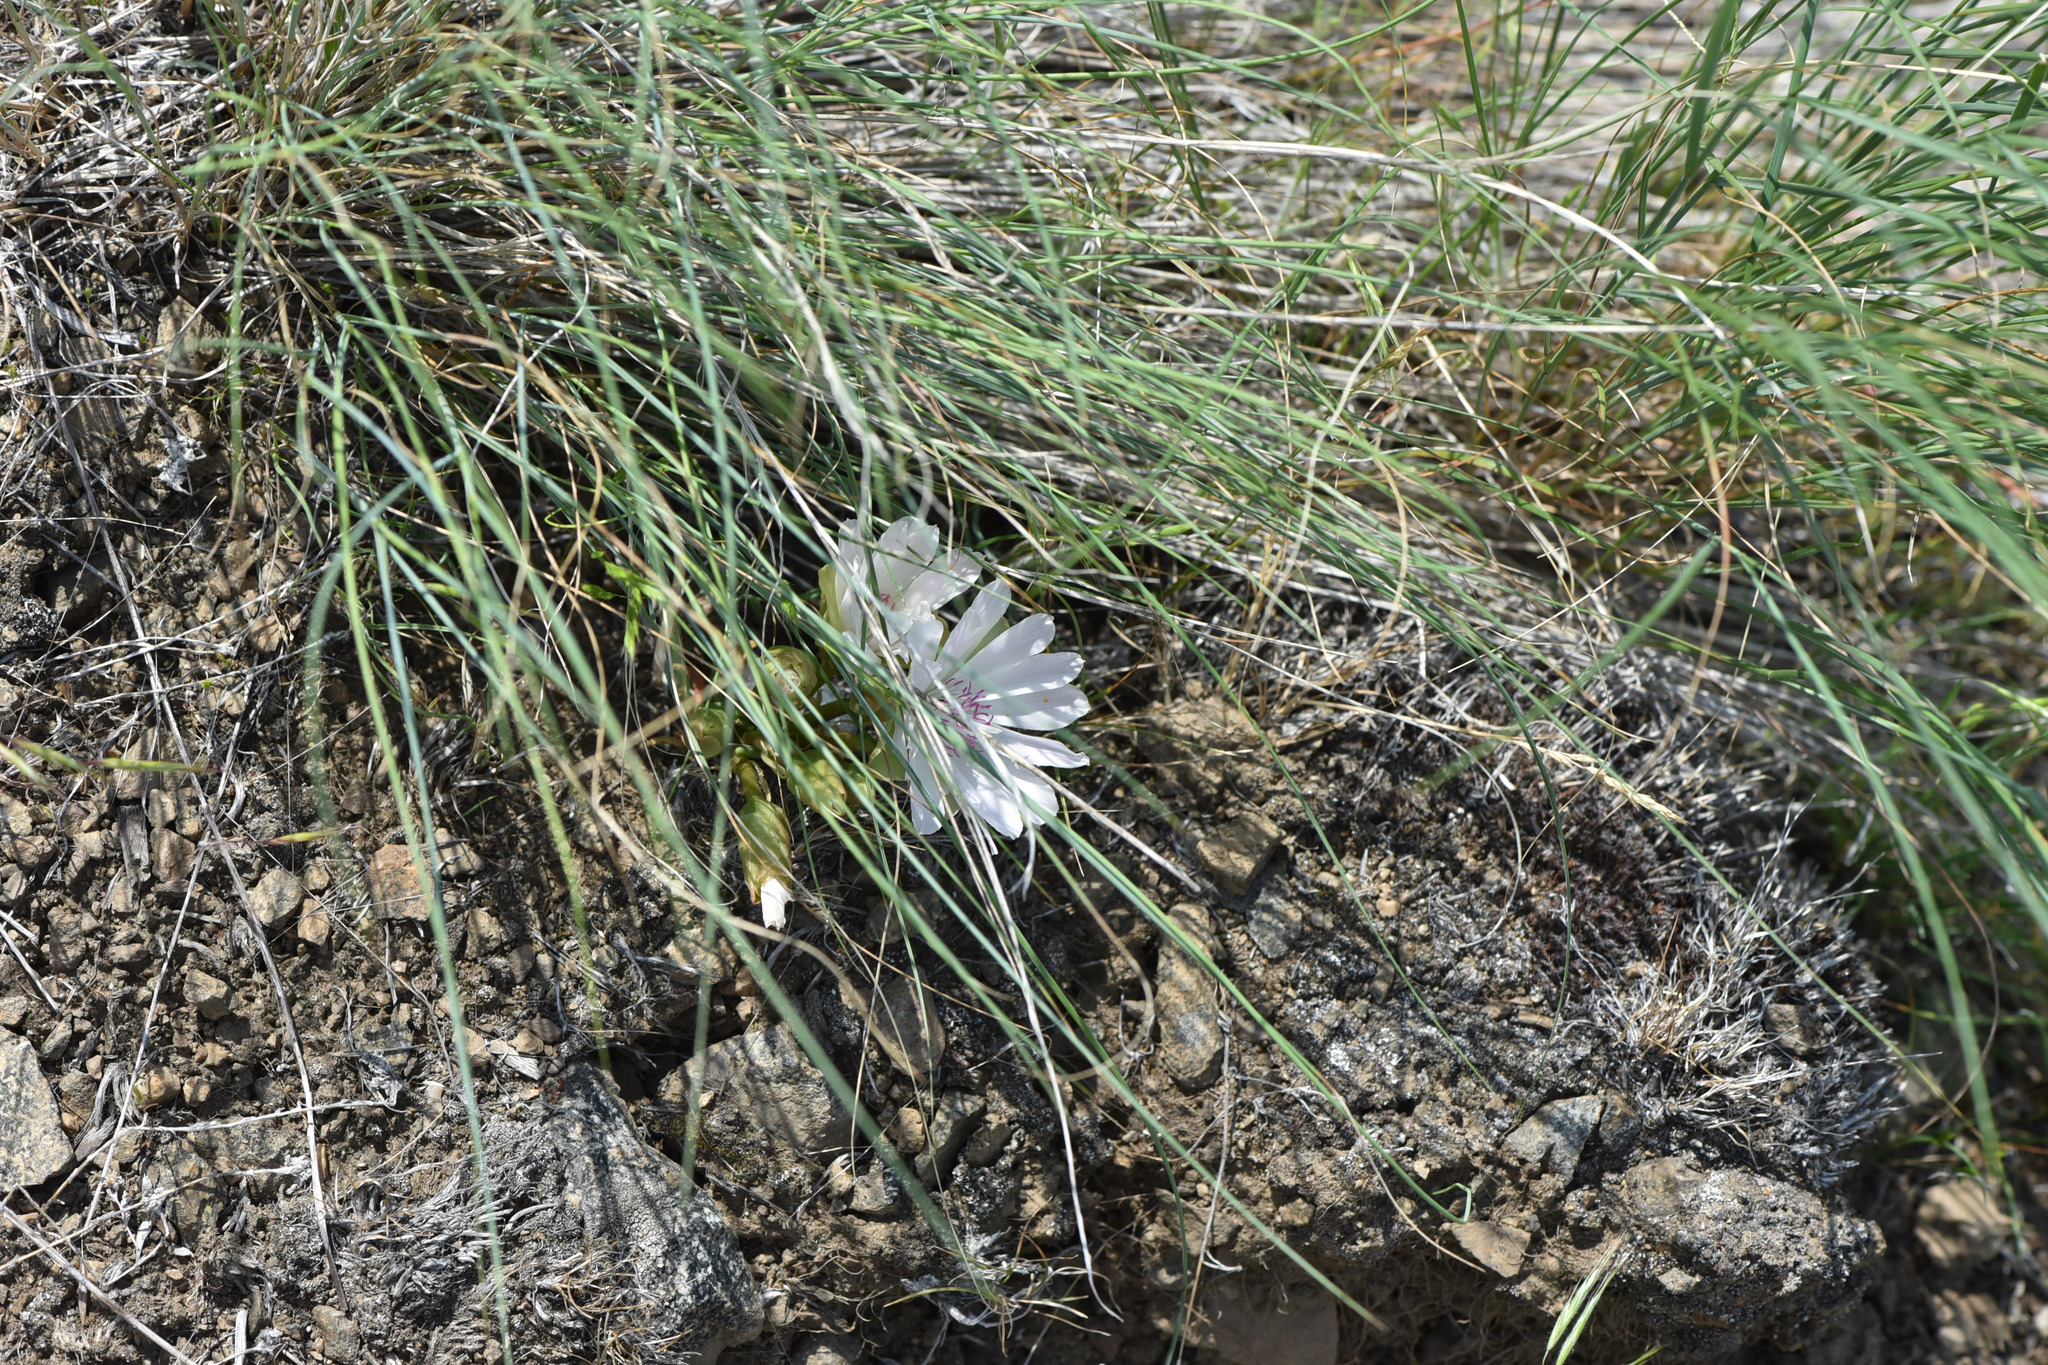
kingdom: Plantae
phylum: Tracheophyta
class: Magnoliopsida
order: Caryophyllales
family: Montiaceae
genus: Lewisia
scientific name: Lewisia rediviva
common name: Bitter-root
